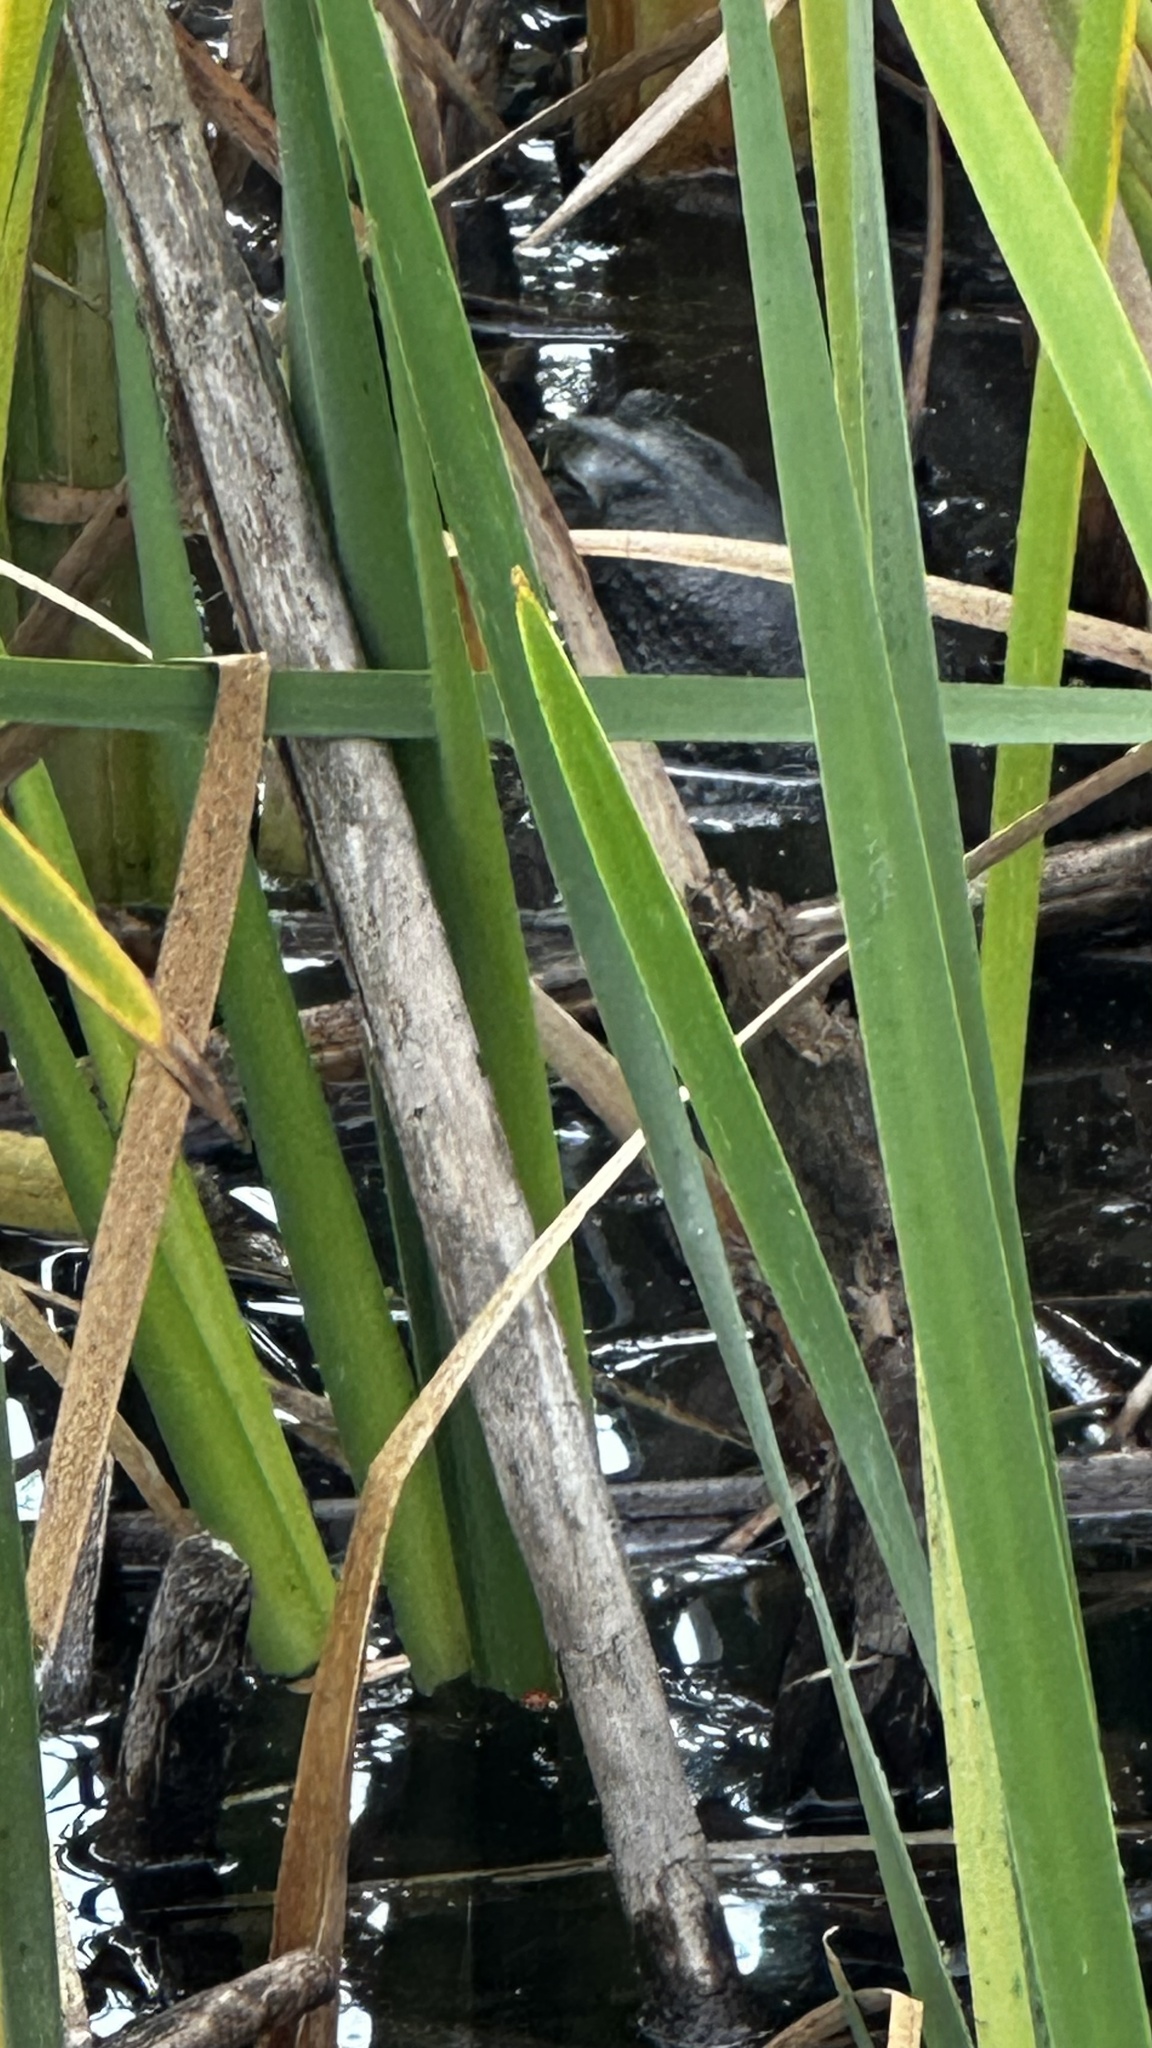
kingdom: Animalia
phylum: Chordata
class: Amphibia
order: Anura
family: Ranidae
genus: Lithobates
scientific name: Lithobates catesbeianus
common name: American bullfrog
